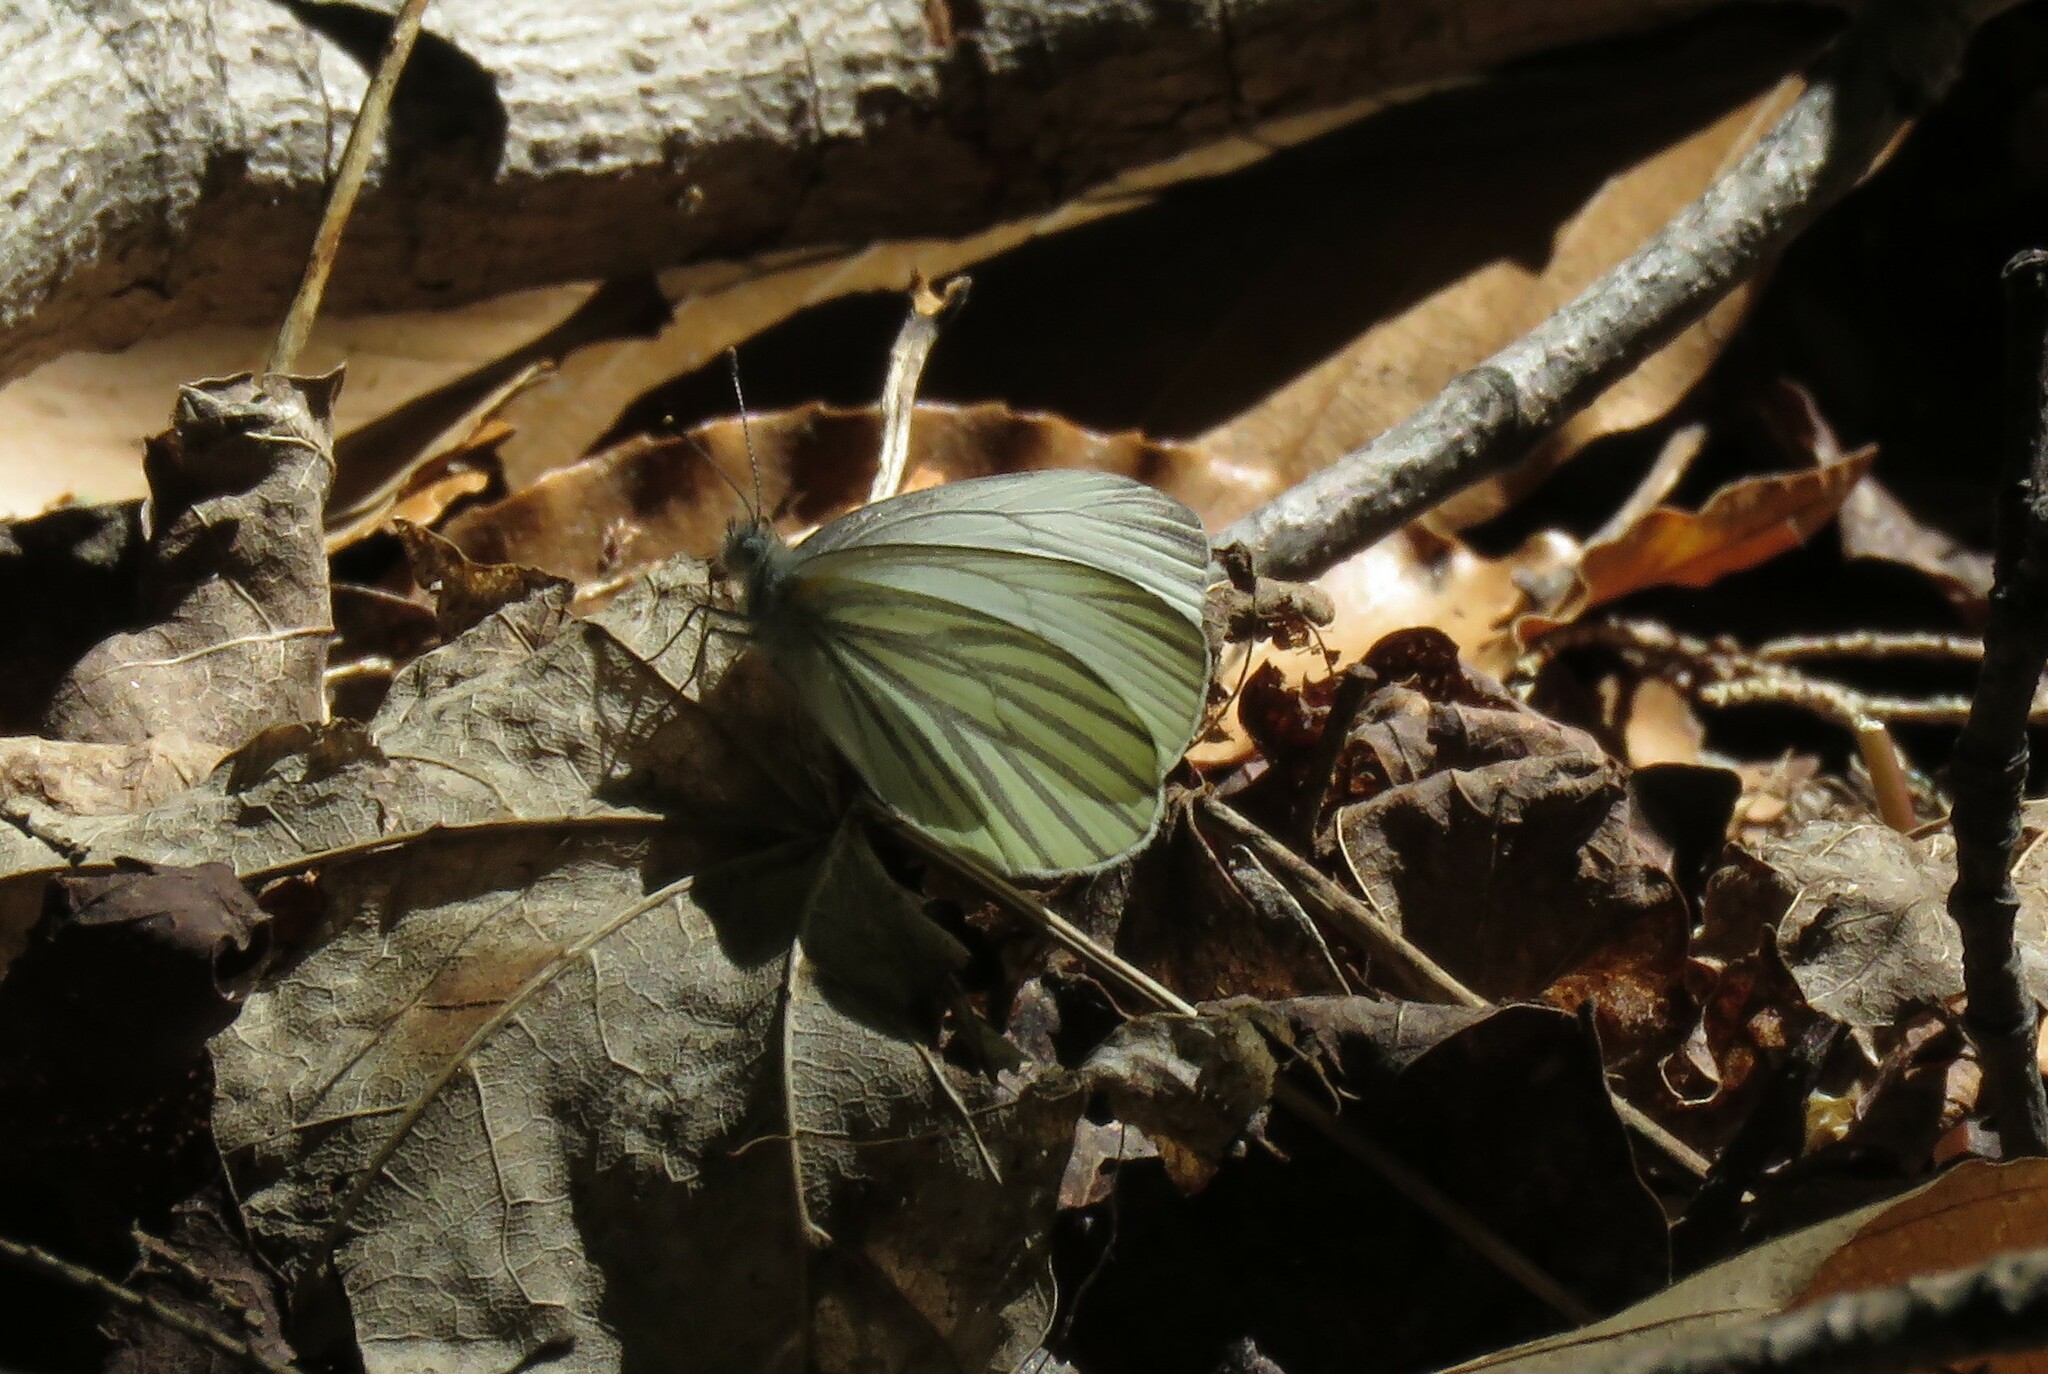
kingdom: Animalia
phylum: Arthropoda
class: Insecta
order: Lepidoptera
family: Pieridae
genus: Pieris
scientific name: Pieris oleracea
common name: Mustard white
